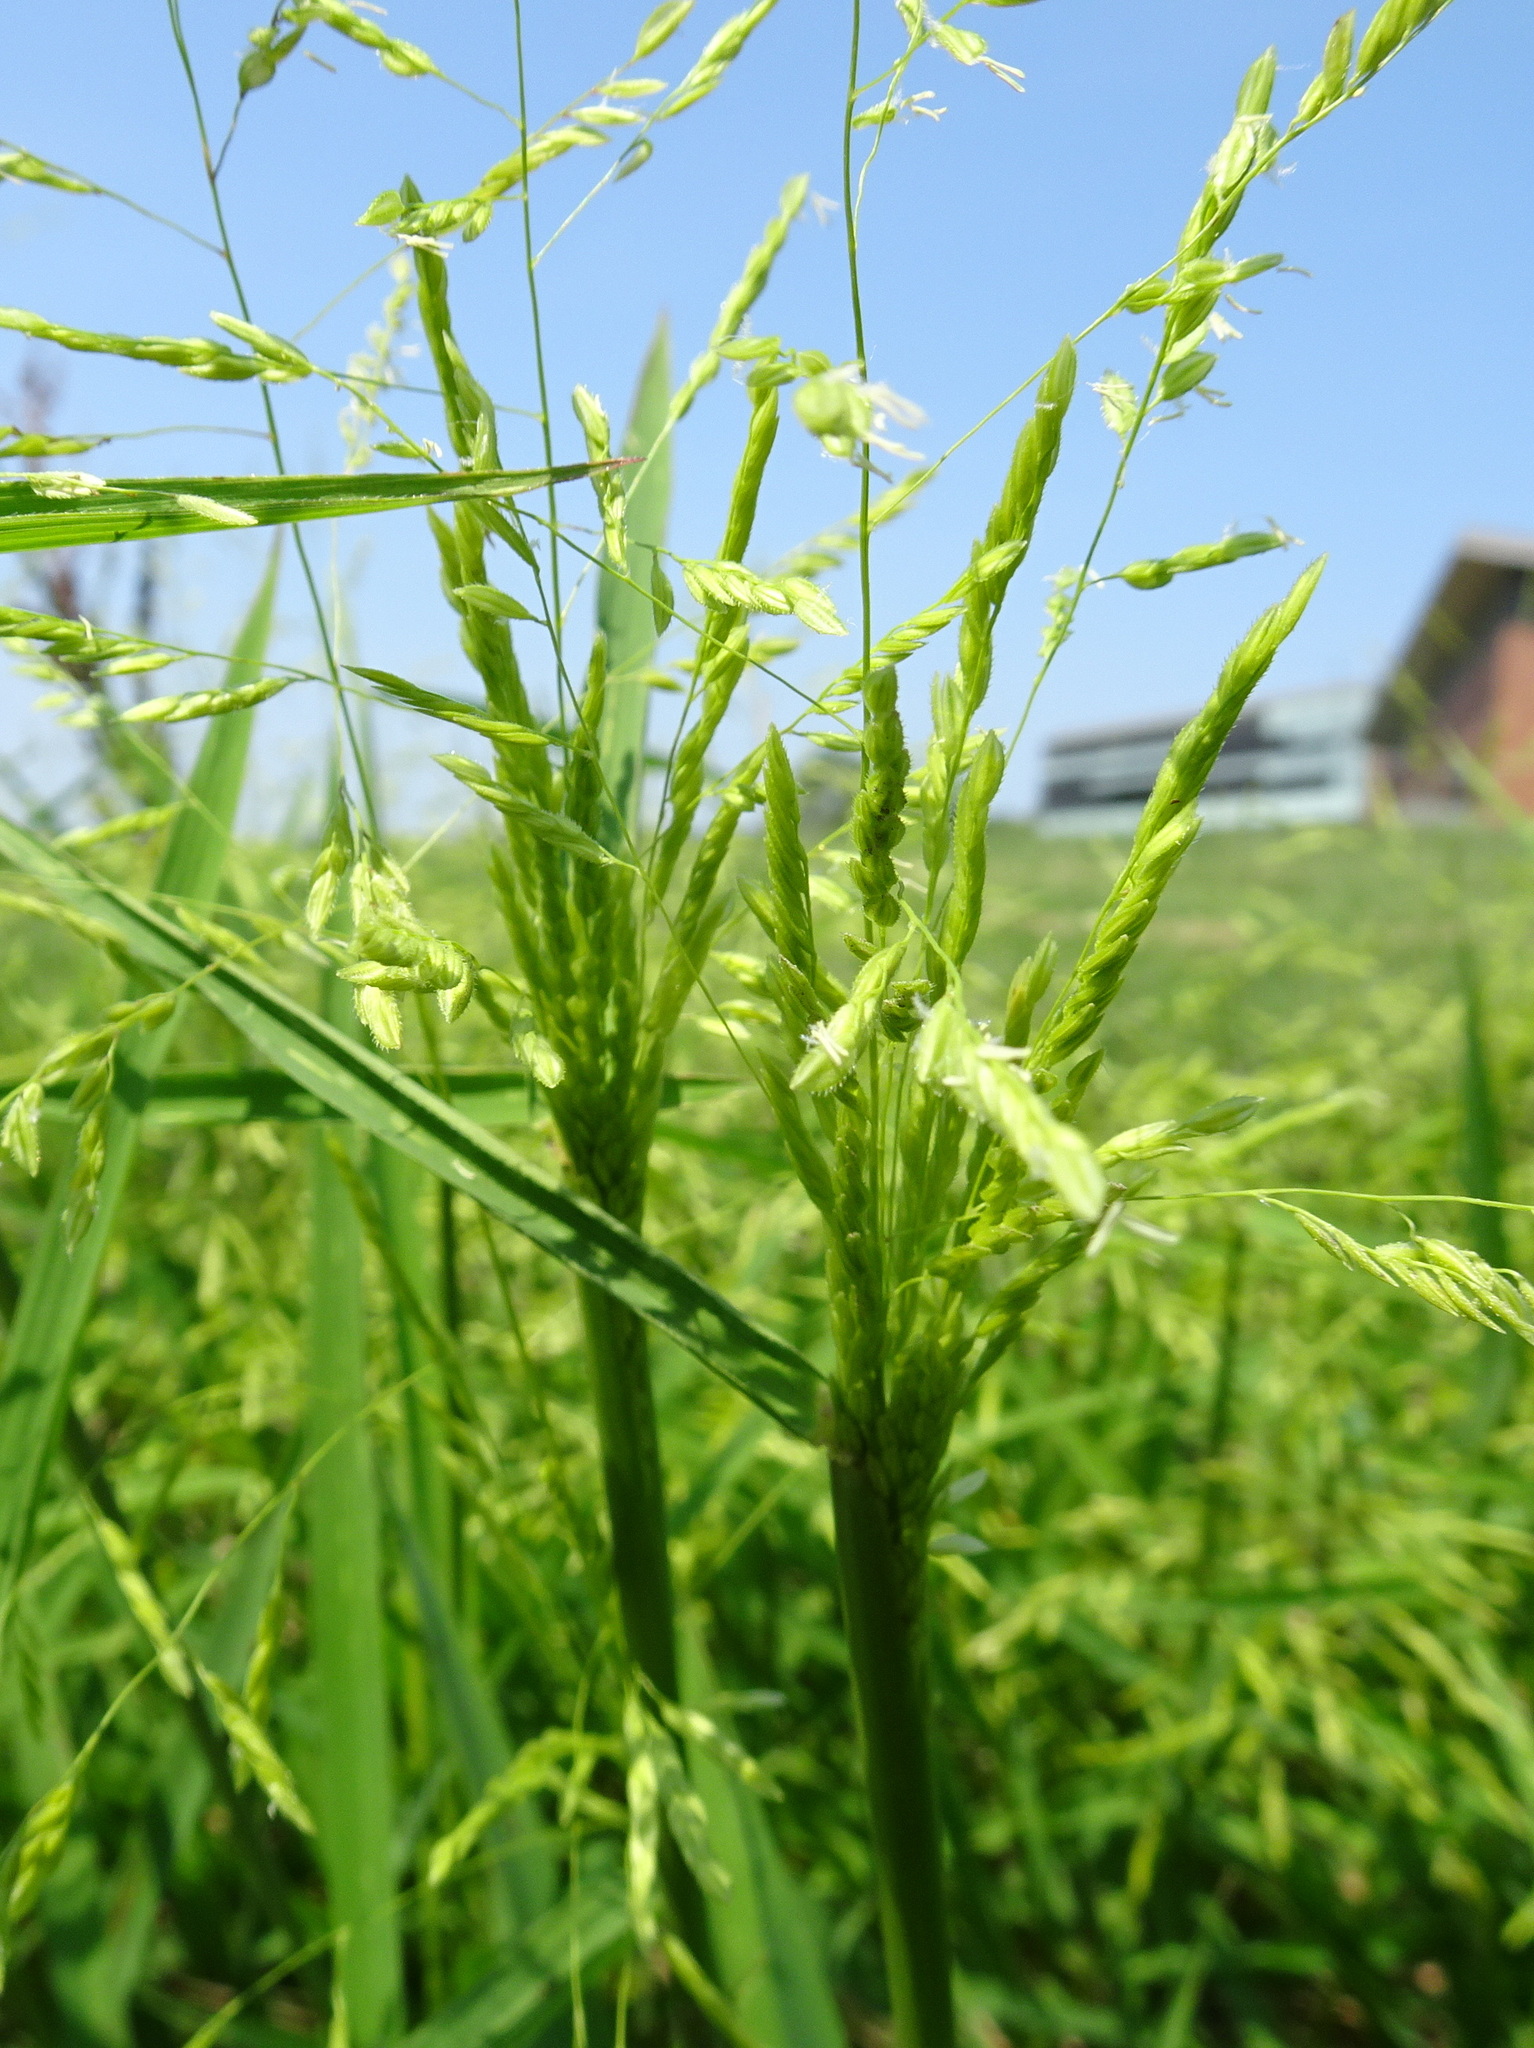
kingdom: Plantae
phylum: Tracheophyta
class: Liliopsida
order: Poales
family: Poaceae
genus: Leersia
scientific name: Leersia oryzoides
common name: Cut-grass
